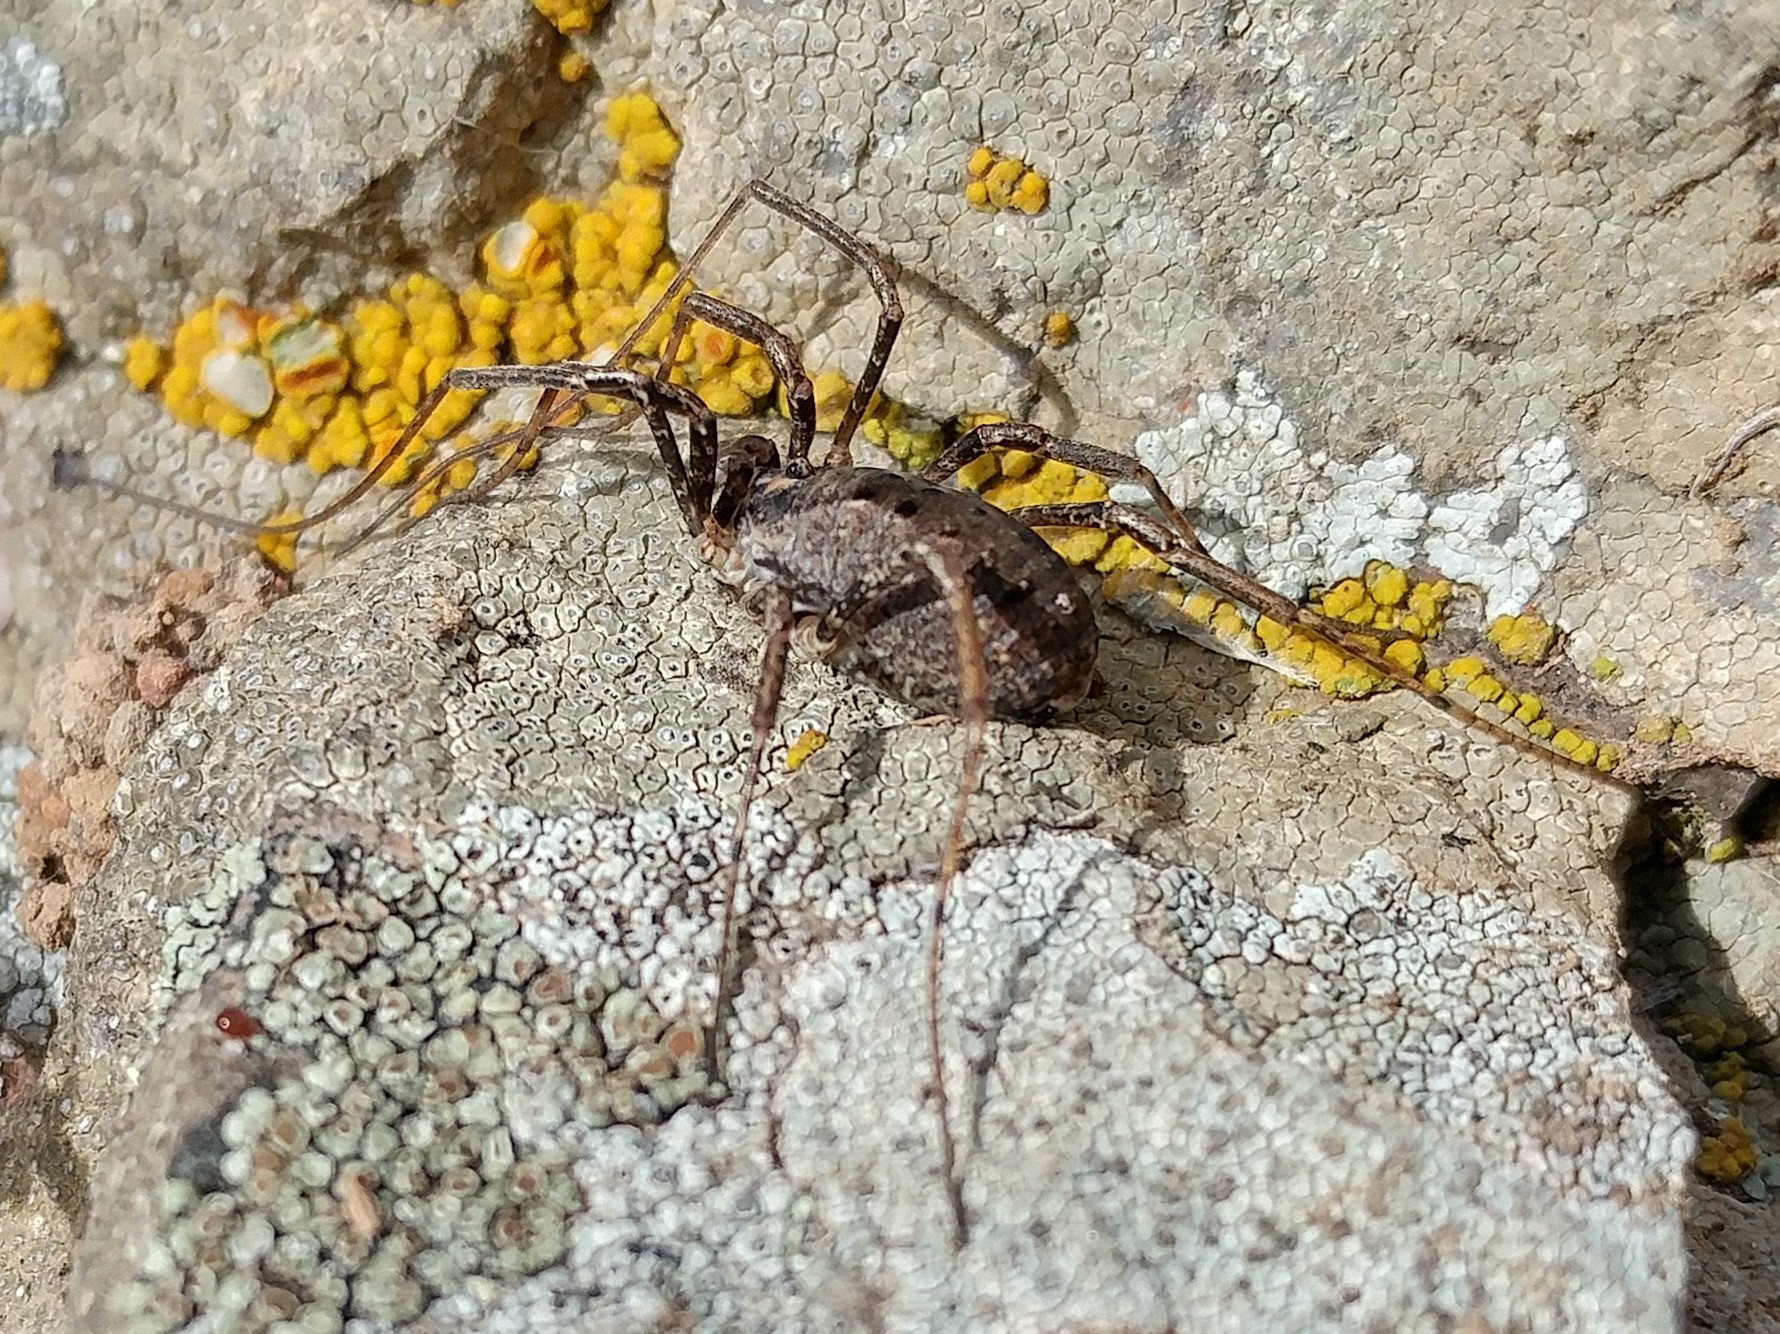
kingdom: Animalia
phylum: Arthropoda
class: Arachnida
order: Opiliones
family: Protolophidae
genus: Protolophus
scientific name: Protolophus cockerelli
